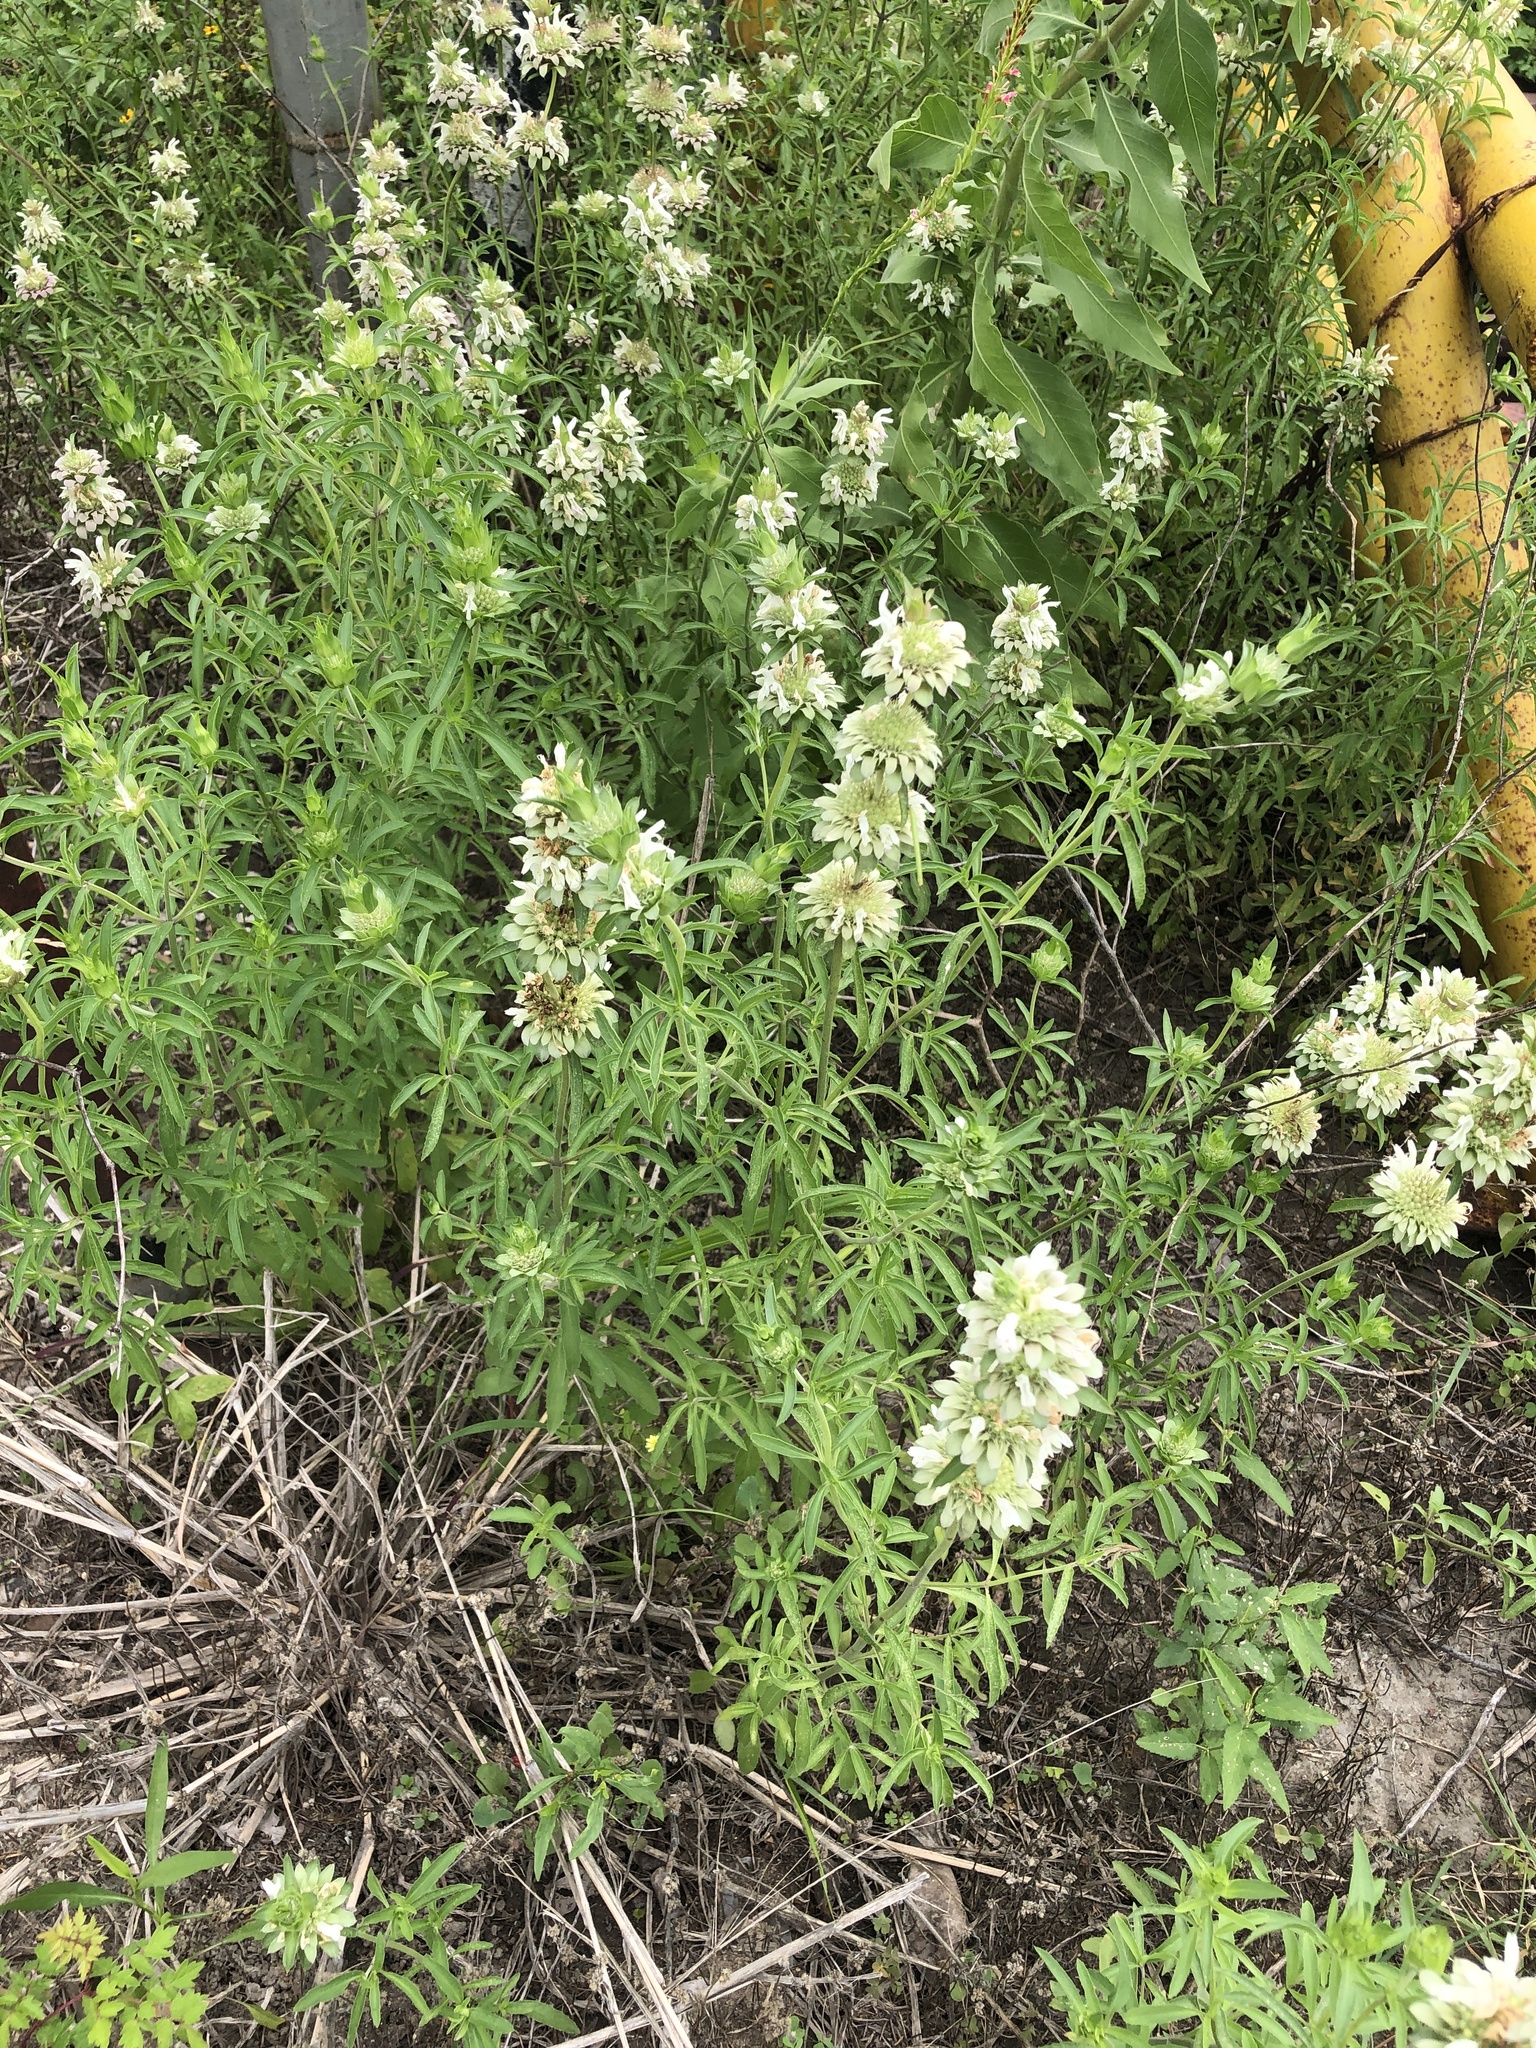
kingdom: Plantae
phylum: Tracheophyta
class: Magnoliopsida
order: Lamiales
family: Lamiaceae
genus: Monarda
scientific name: Monarda citriodora
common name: Lemon beebalm
